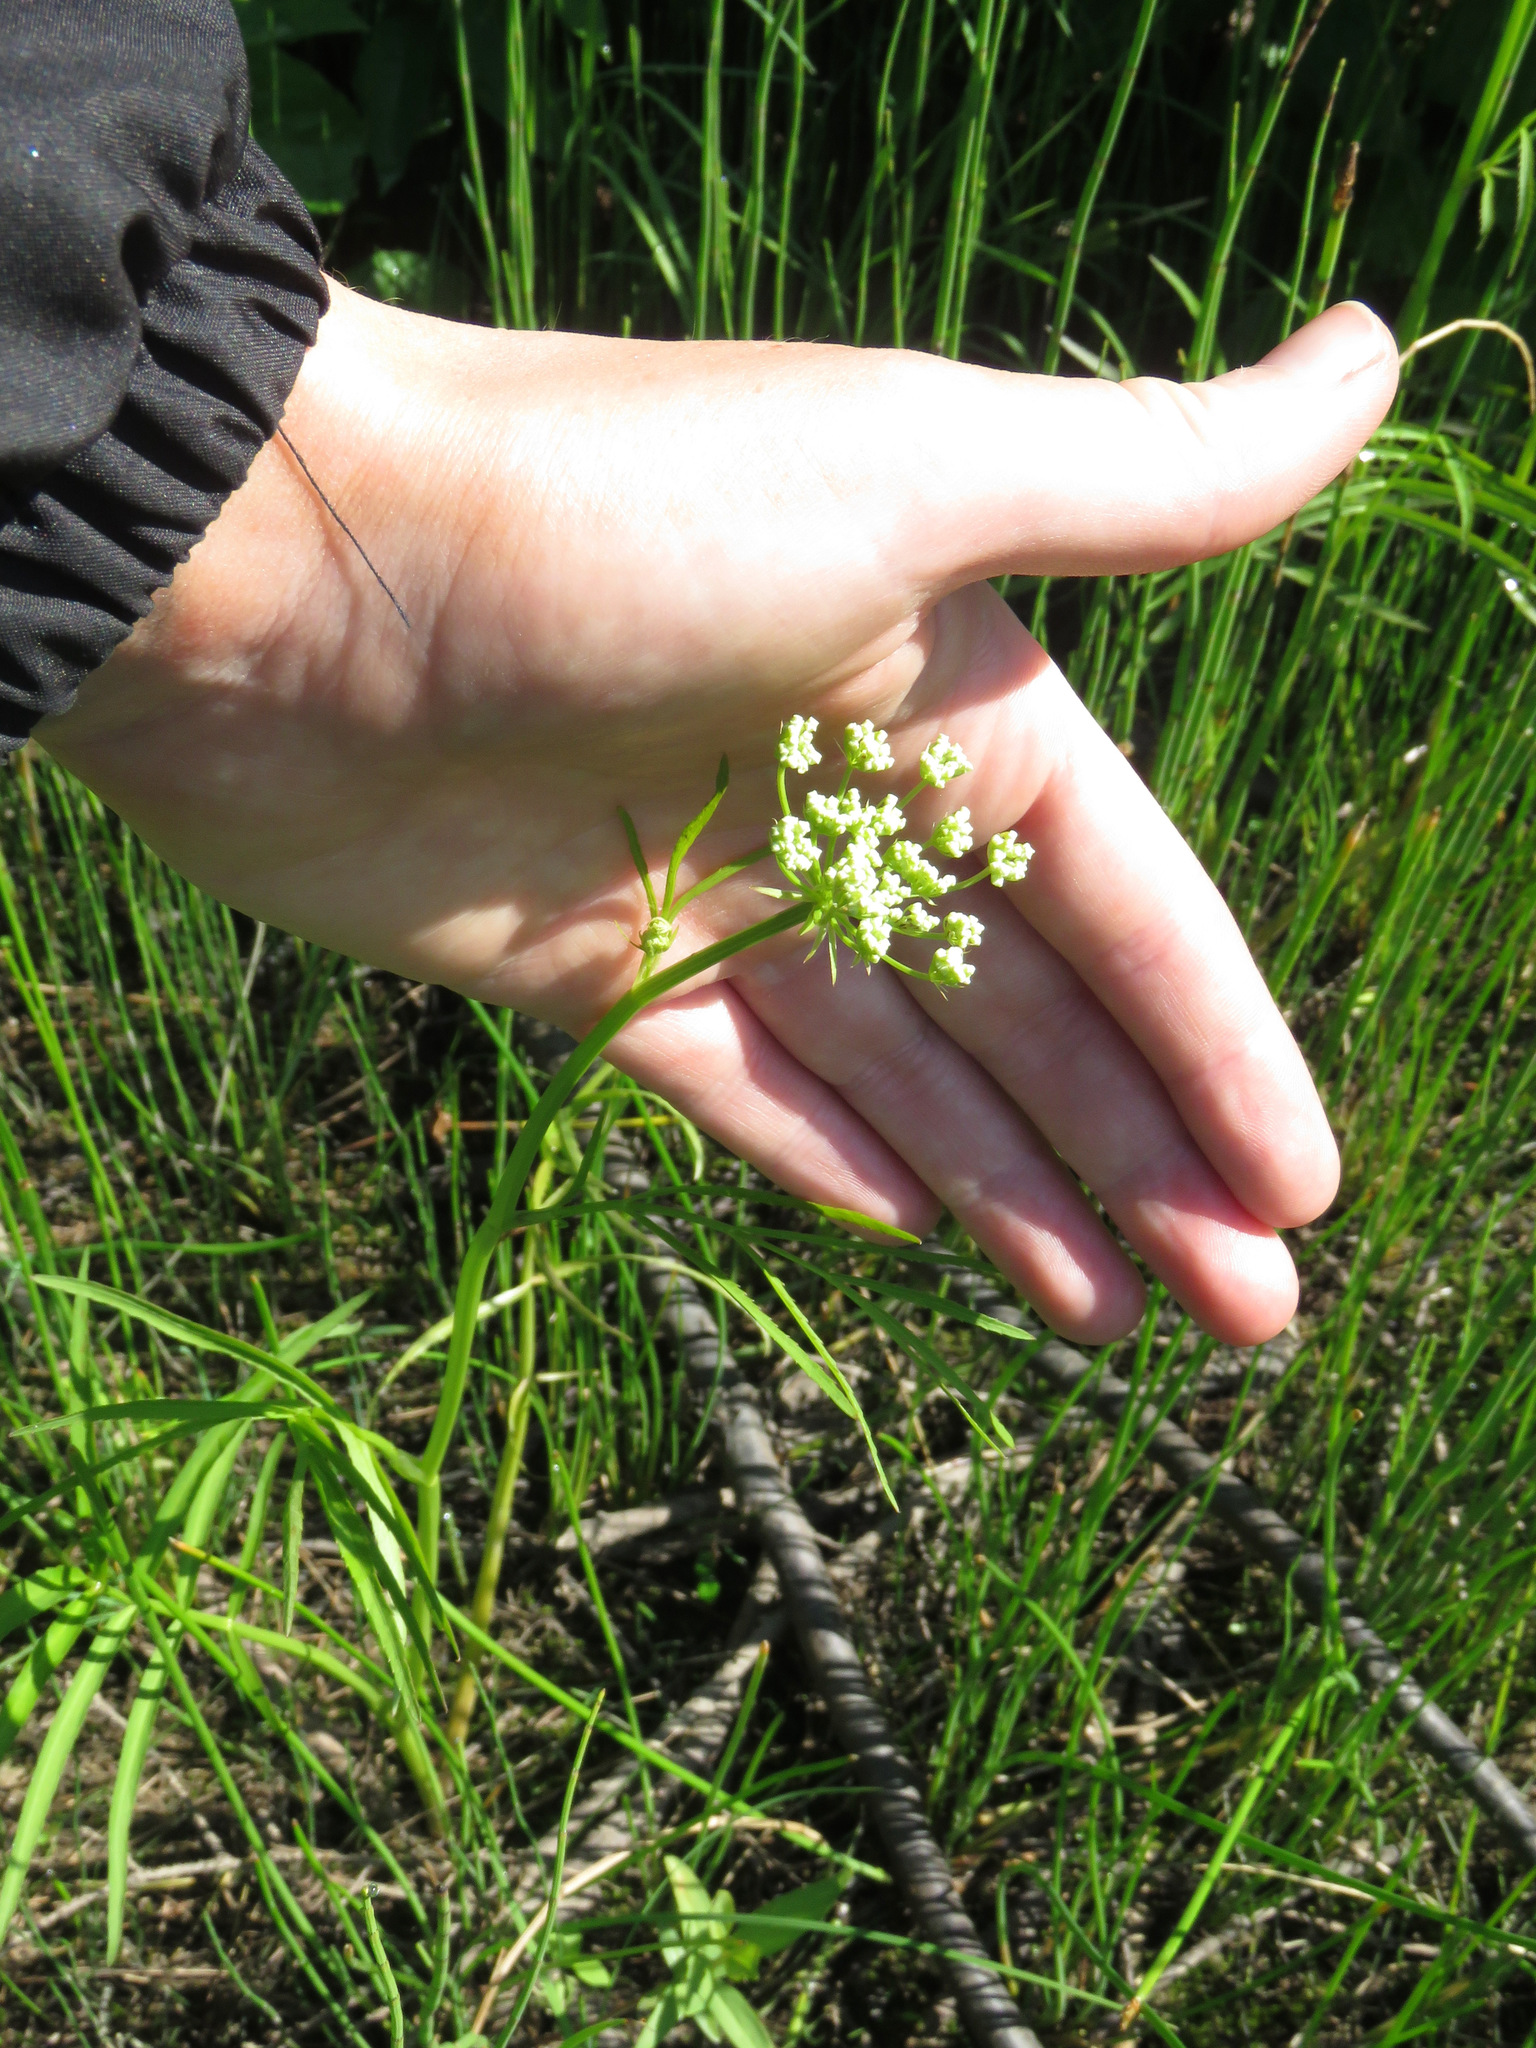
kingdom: Plantae
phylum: Tracheophyta
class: Magnoliopsida
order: Apiales
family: Apiaceae
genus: Sium
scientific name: Sium suave
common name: Hemlock water-parsnip
